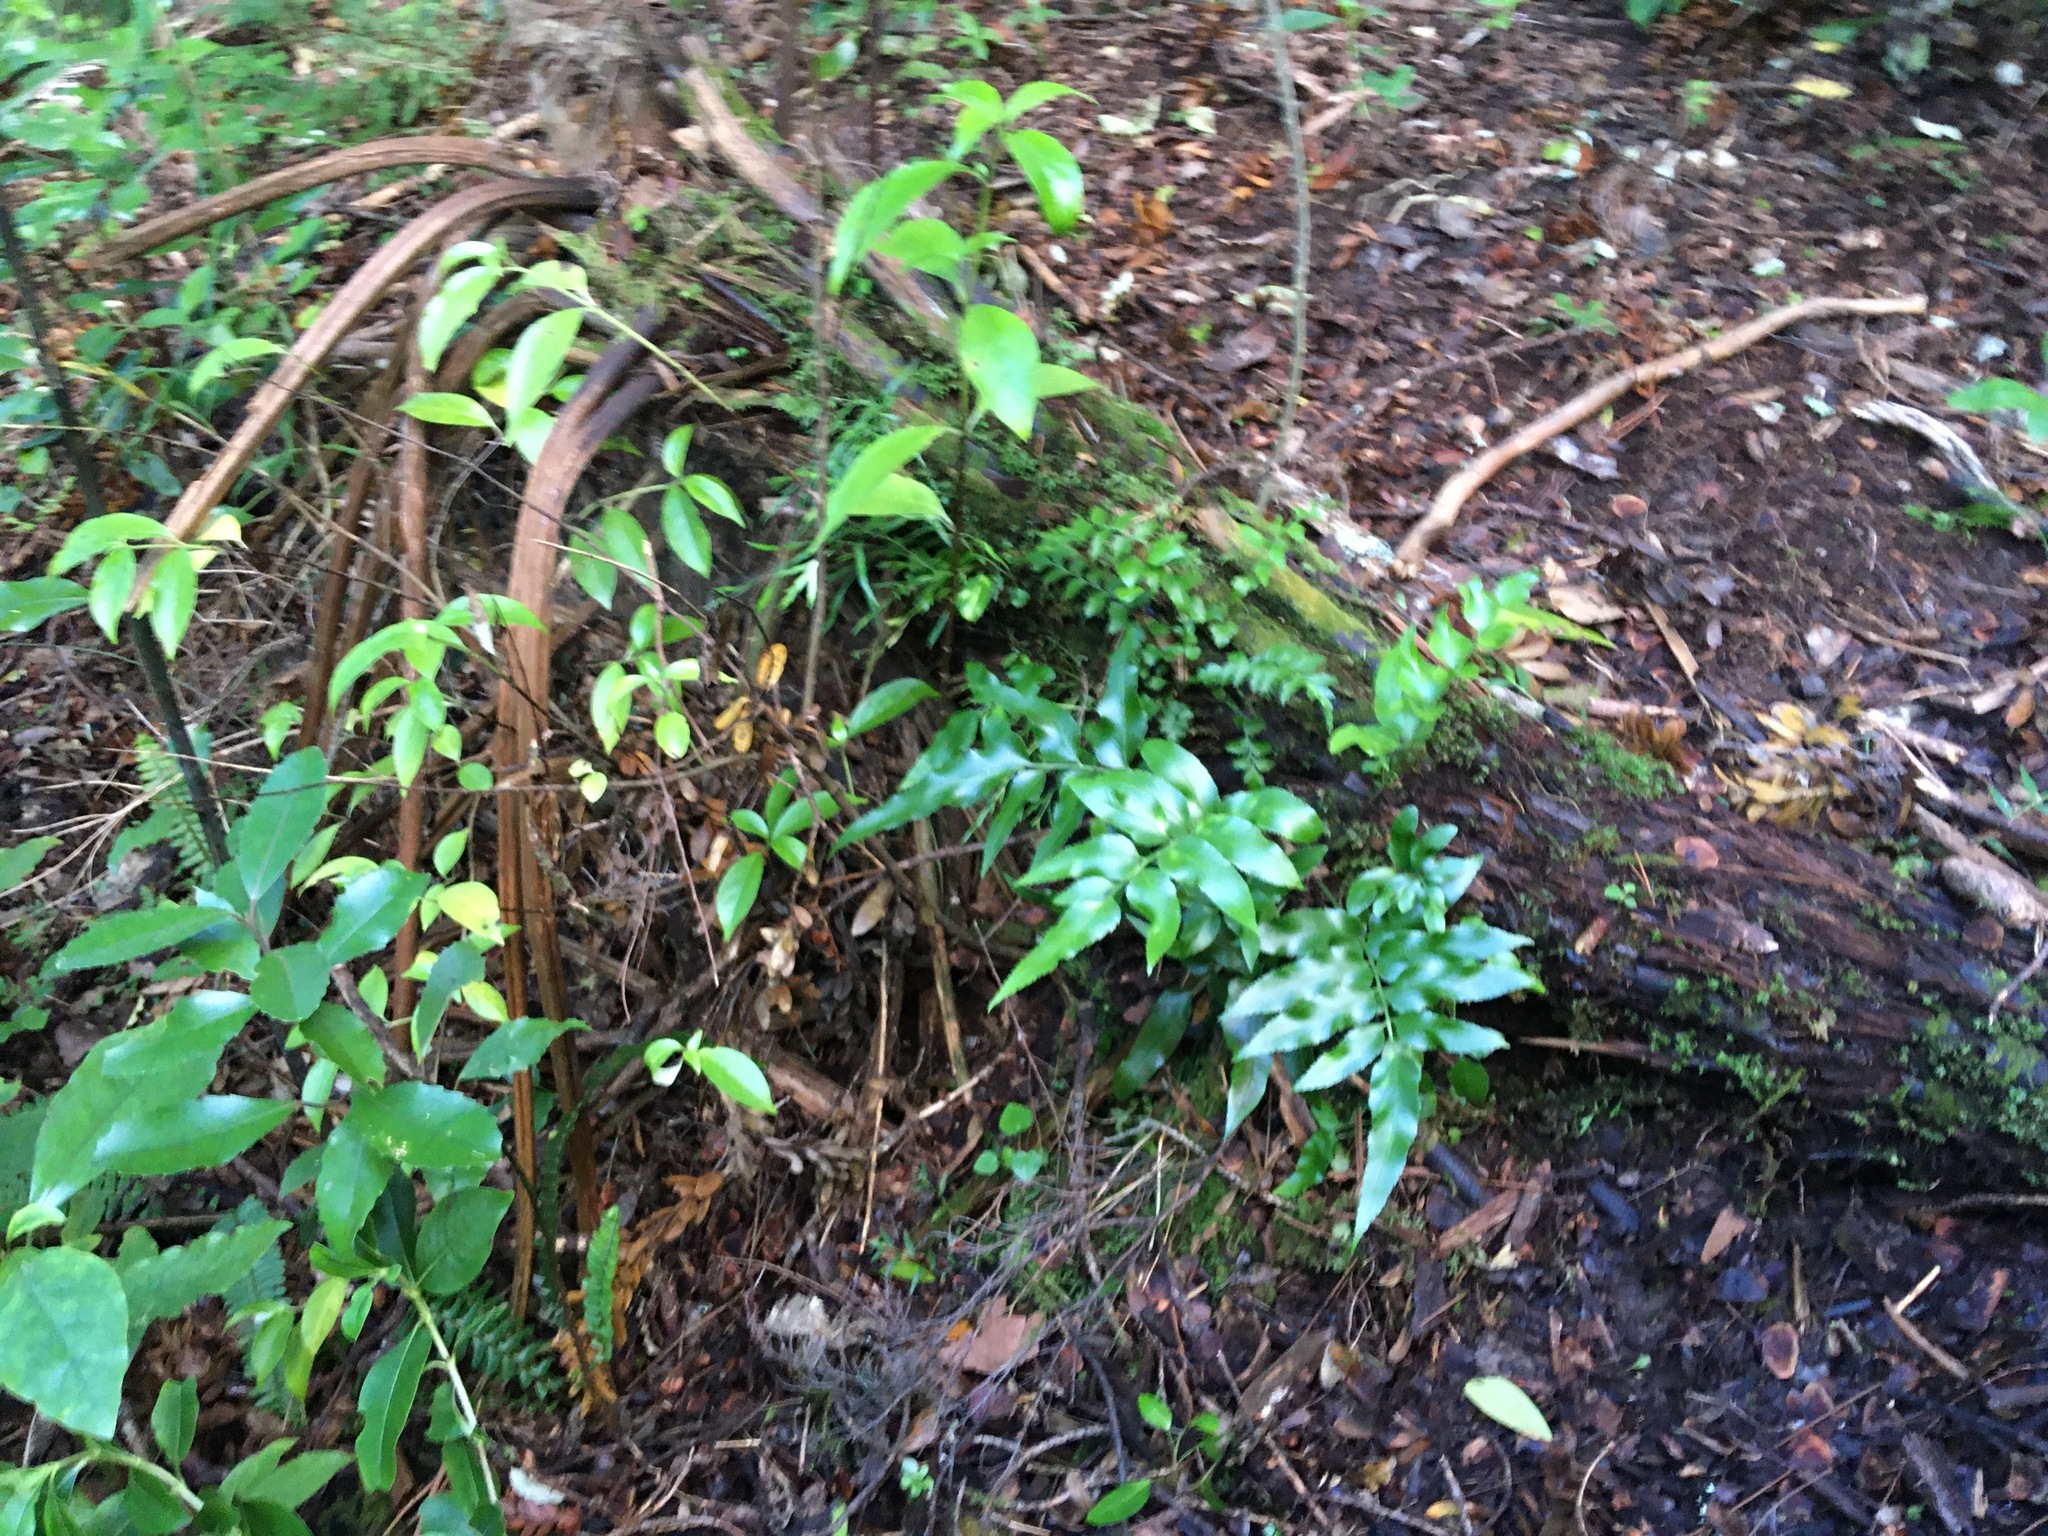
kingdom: Plantae
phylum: Tracheophyta
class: Polypodiopsida
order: Polypodiales
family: Aspleniaceae
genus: Asplenium
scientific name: Asplenium oblongifolium
